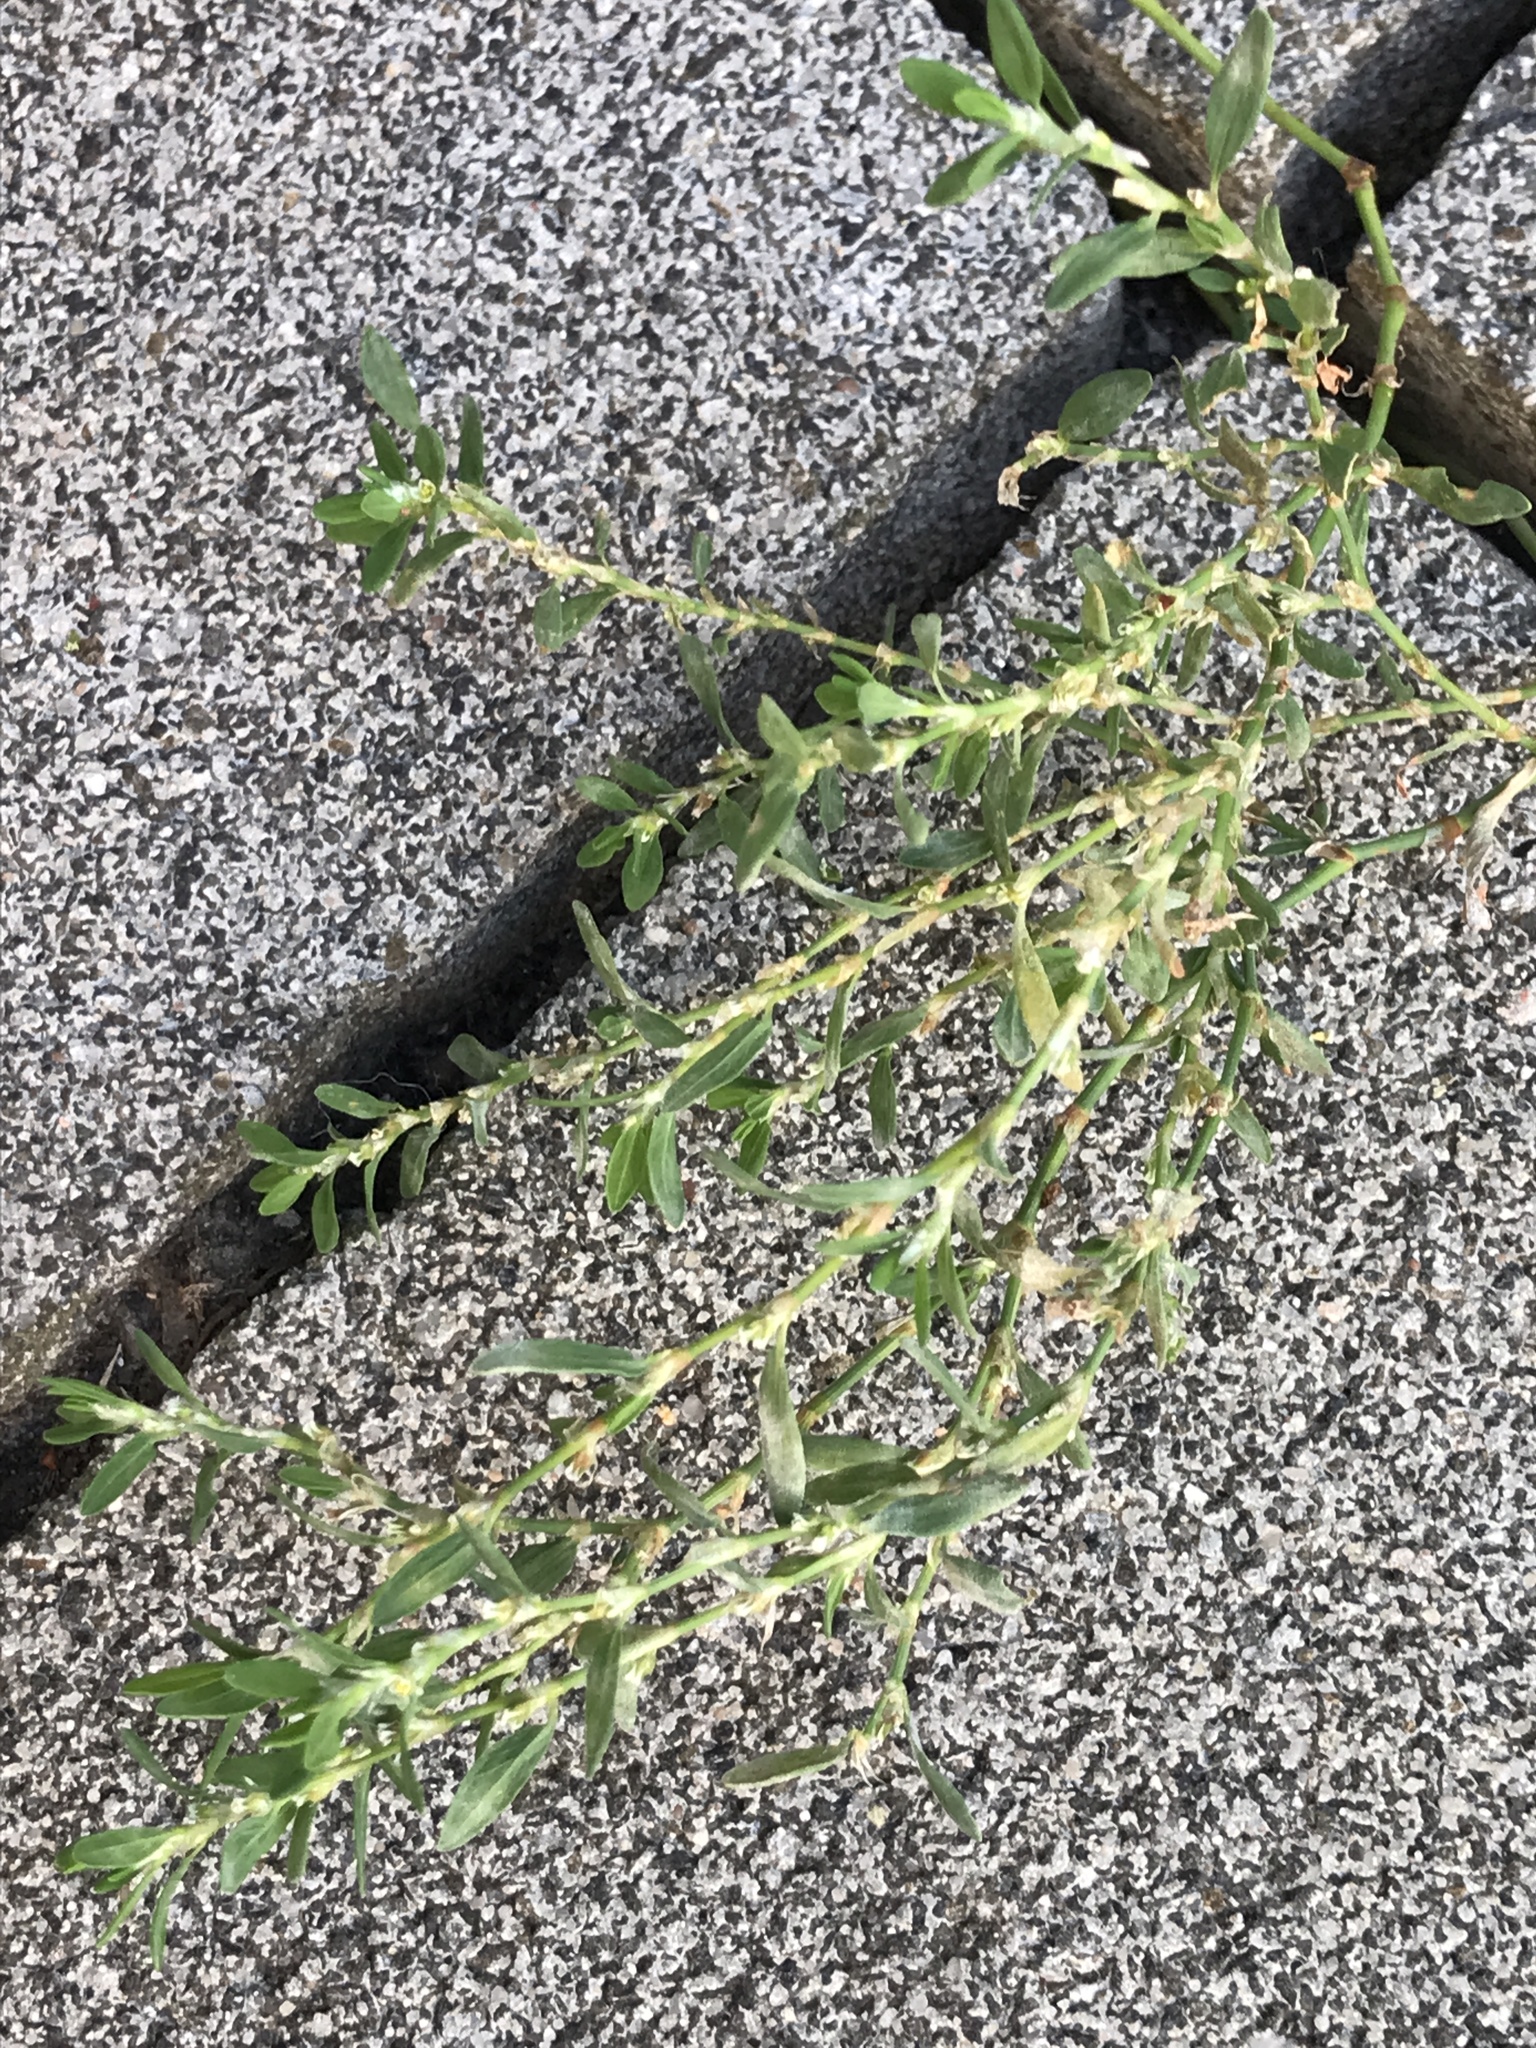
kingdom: Plantae
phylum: Tracheophyta
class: Magnoliopsida
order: Caryophyllales
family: Polygonaceae
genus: Polygonum
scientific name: Polygonum arenastrum
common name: Equal-leaved knotgrass
